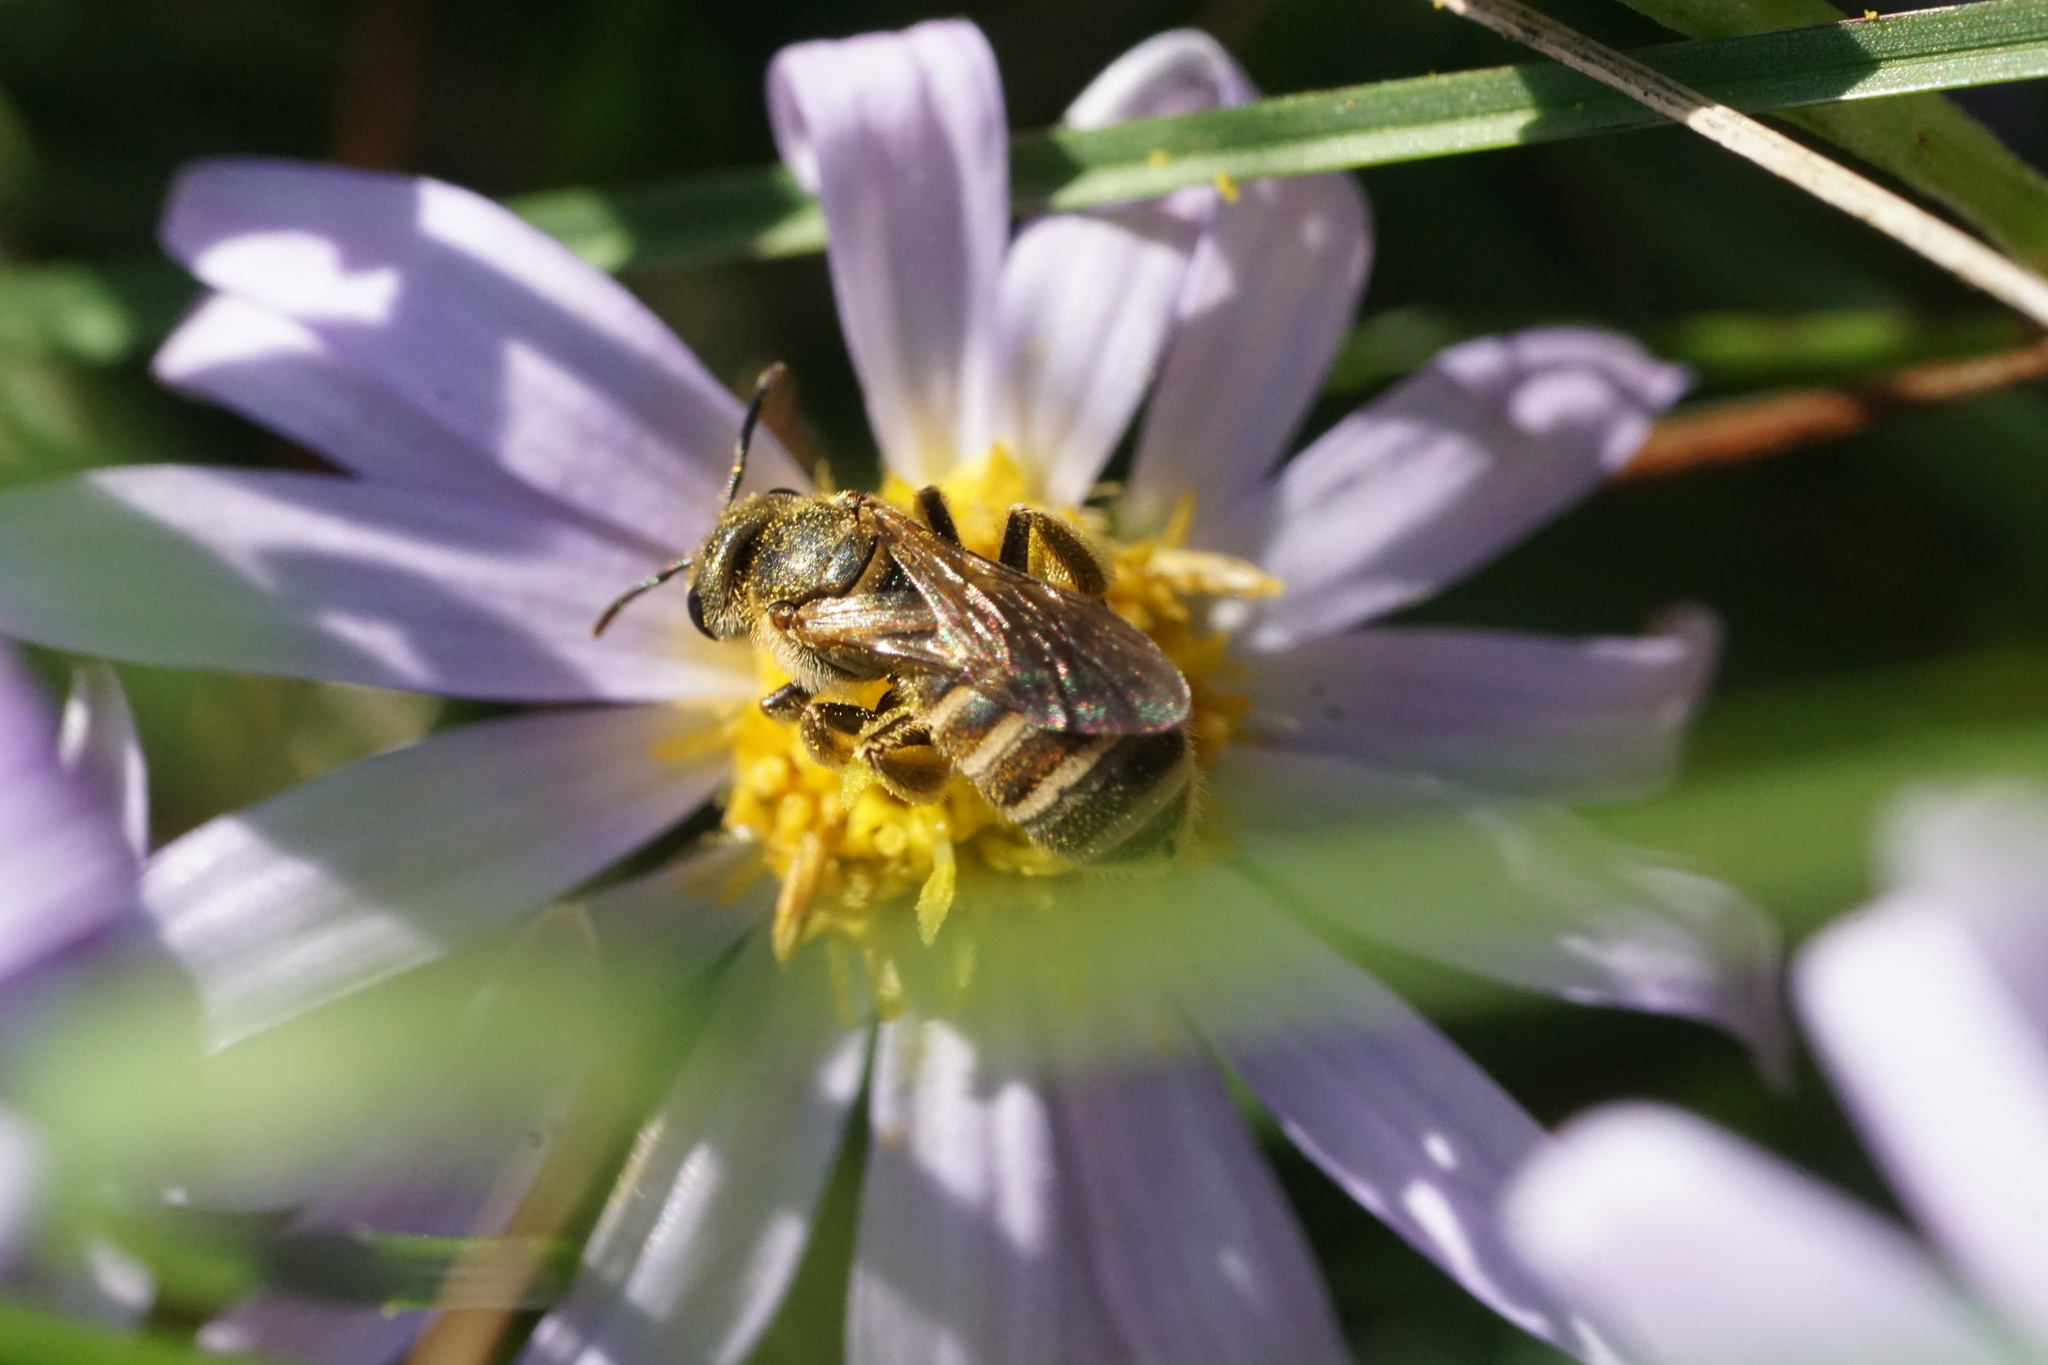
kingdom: Animalia
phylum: Arthropoda
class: Insecta
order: Hymenoptera
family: Halictidae
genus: Halictus
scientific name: Halictus confusus
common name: Southern bronze furrow bee
